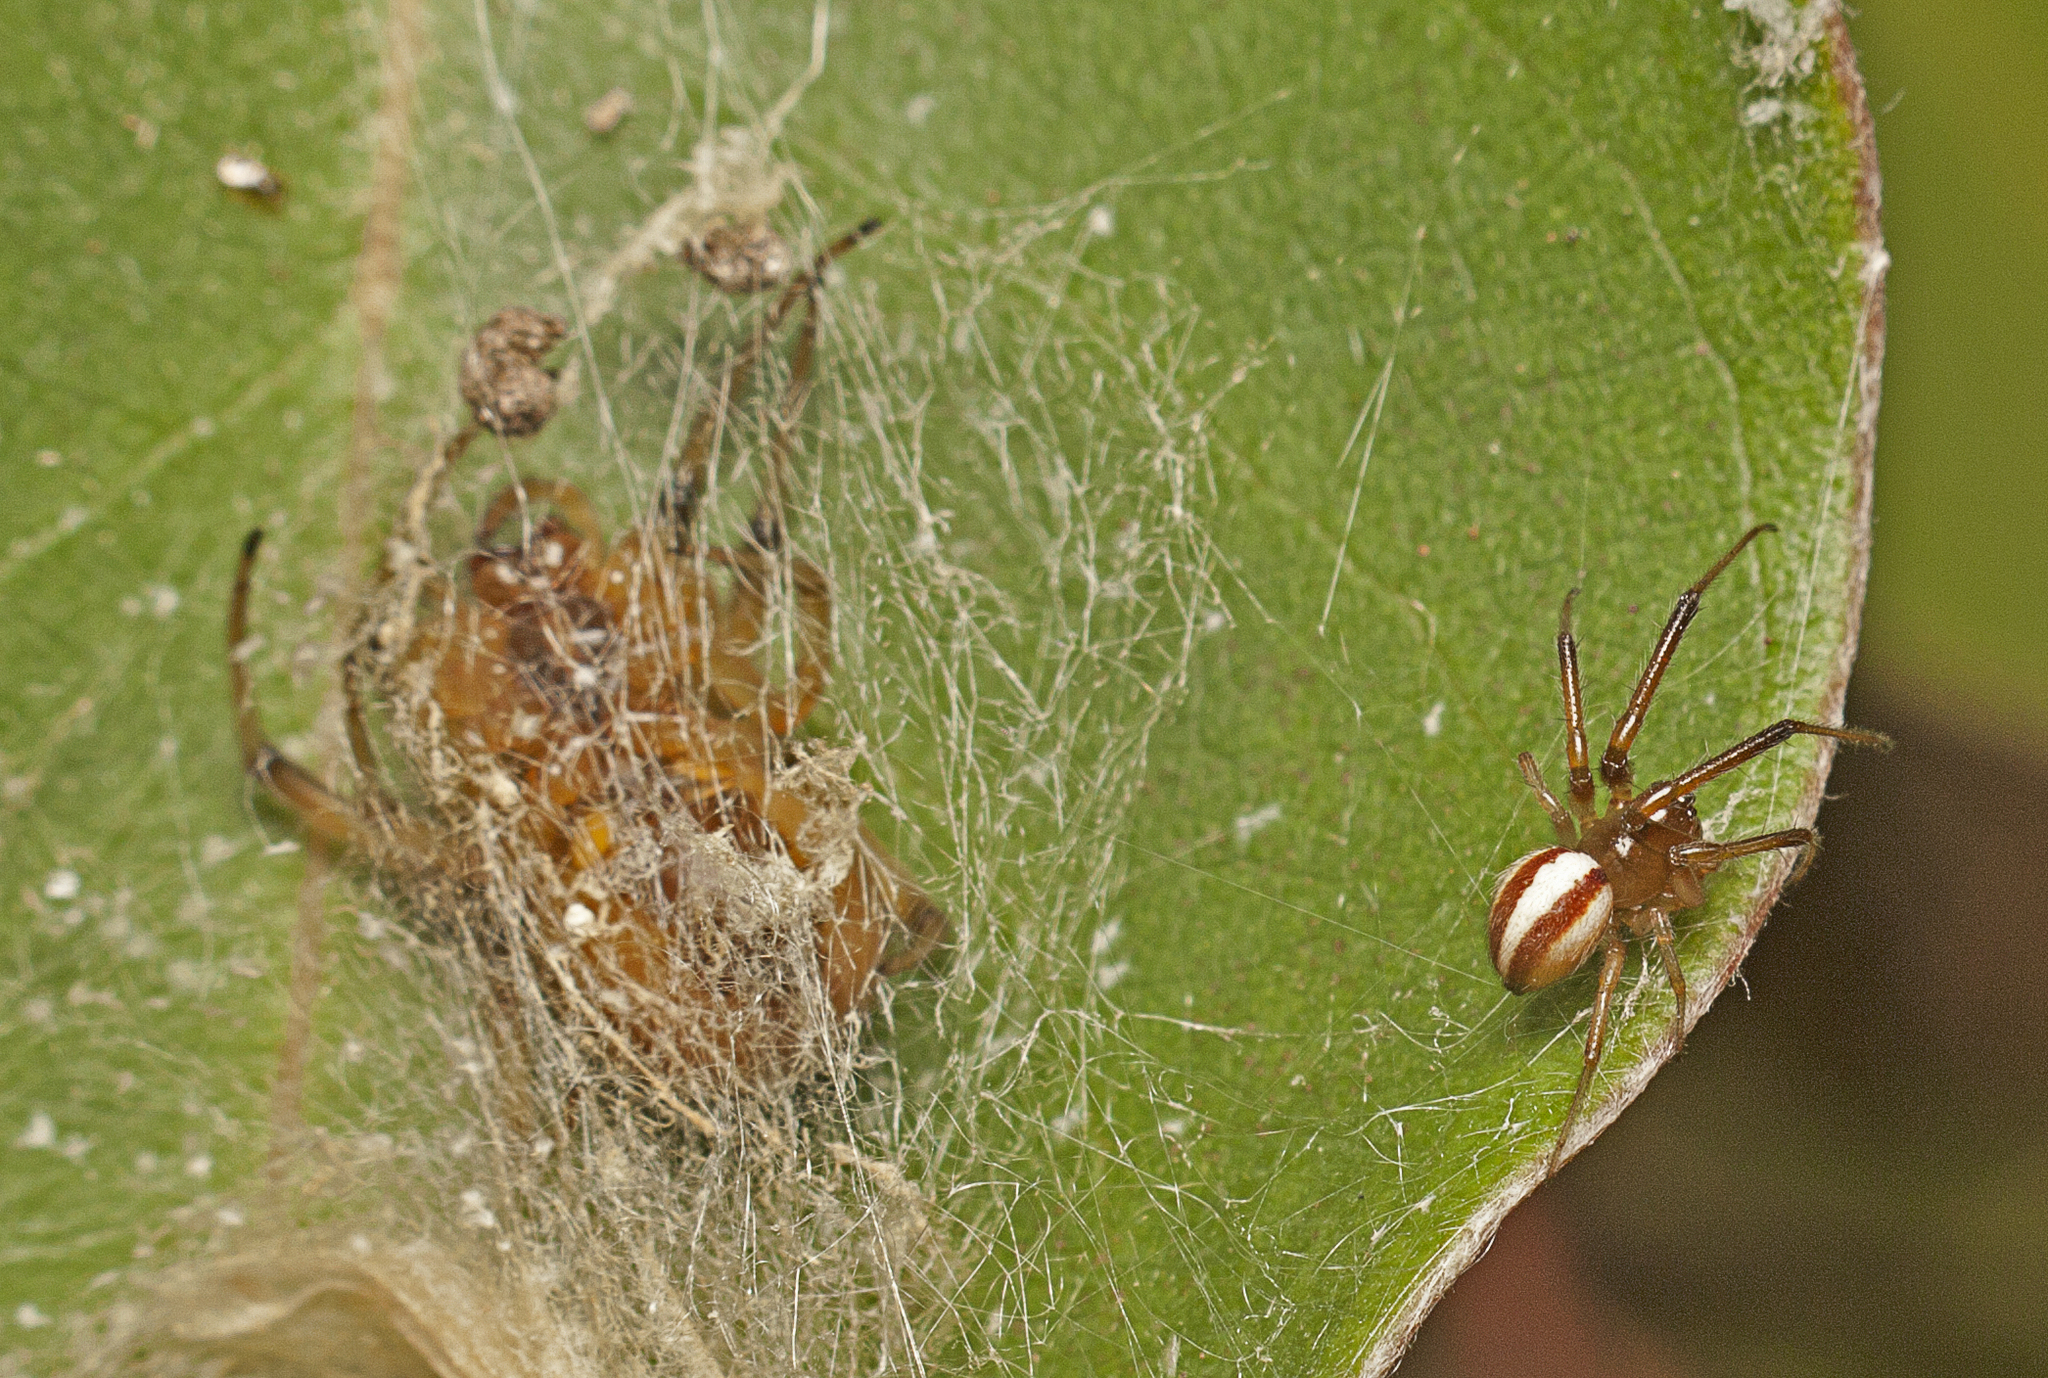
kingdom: Animalia
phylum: Arthropoda
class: Arachnida
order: Araneae
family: Araneidae
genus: Deliochus
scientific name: Deliochus idoneus
